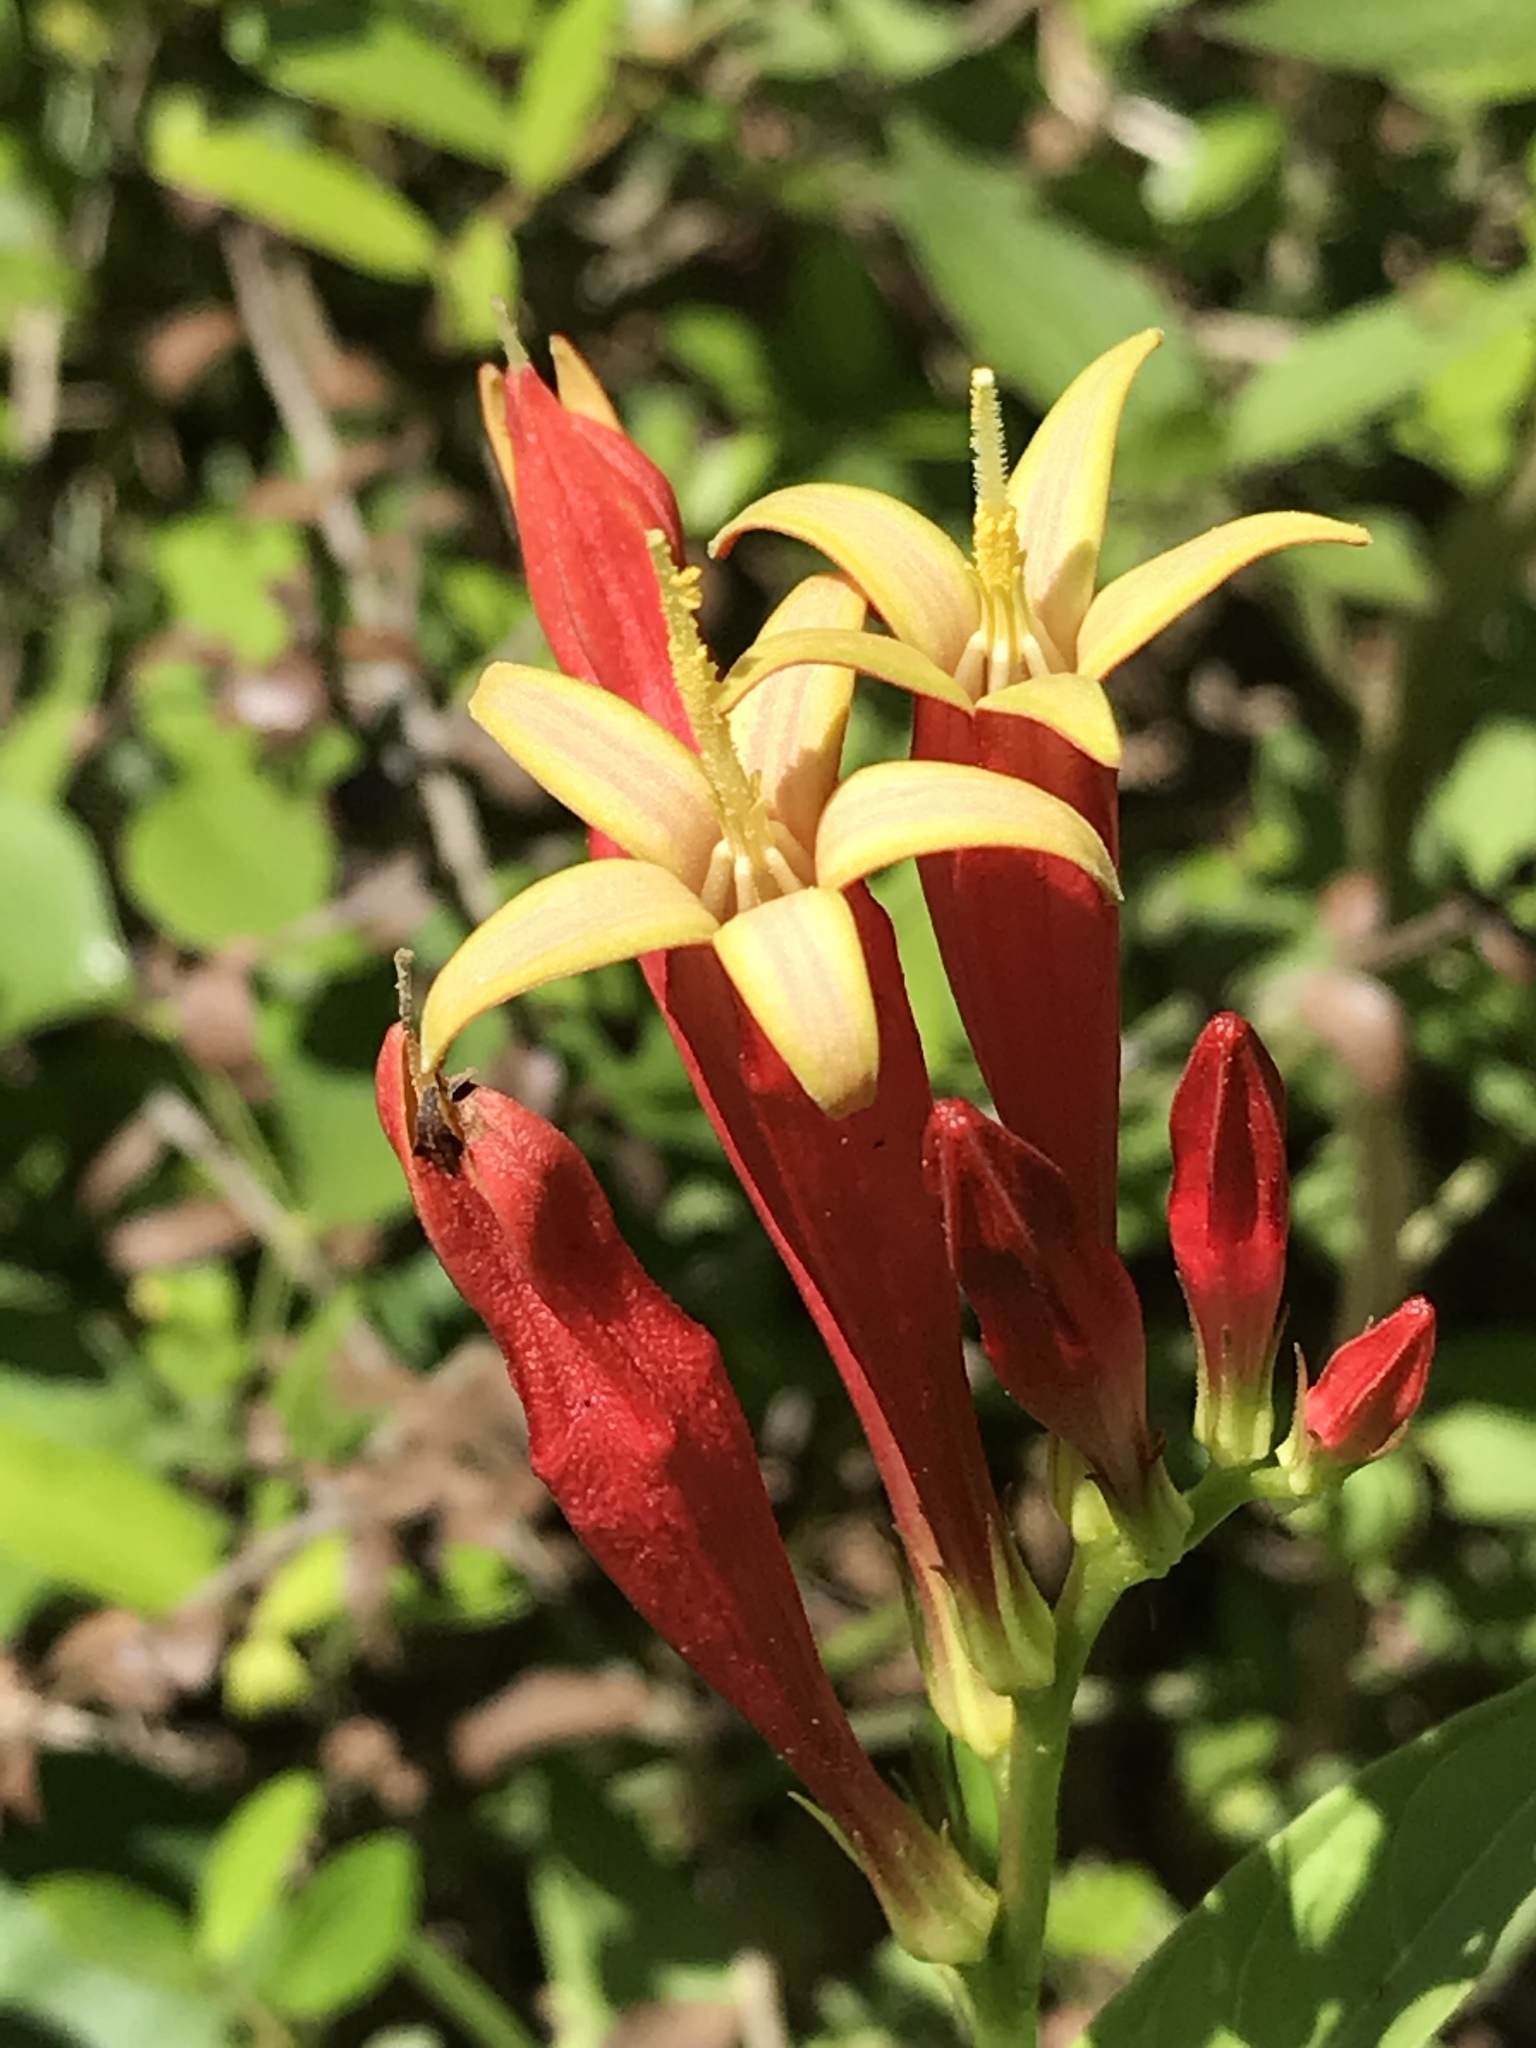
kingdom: Plantae
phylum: Tracheophyta
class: Magnoliopsida
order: Gentianales
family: Loganiaceae
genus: Spigelia
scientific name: Spigelia marilandica
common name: Indian-pink
